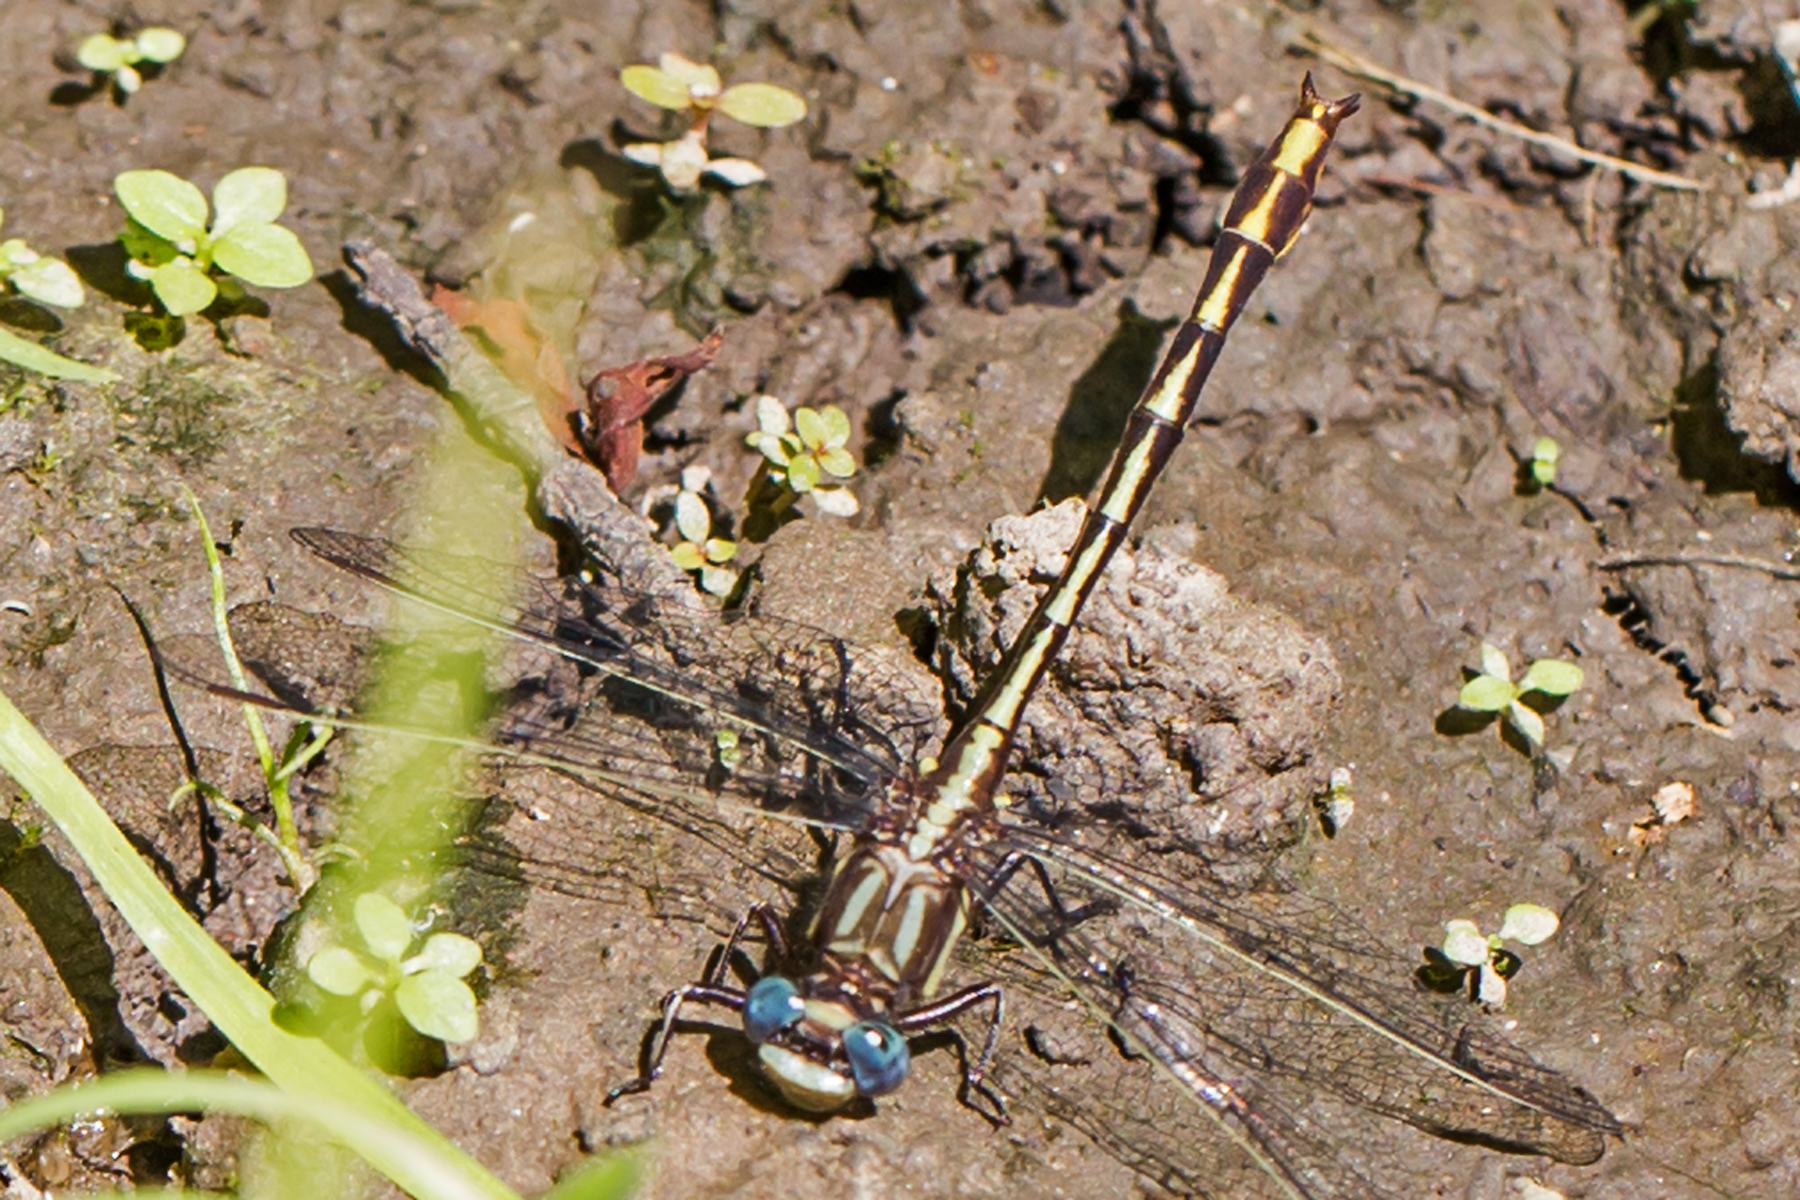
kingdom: Animalia
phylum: Arthropoda
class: Insecta
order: Odonata
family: Gomphidae
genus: Phanogomphus
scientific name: Phanogomphus exilis
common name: Lancet clubtail
